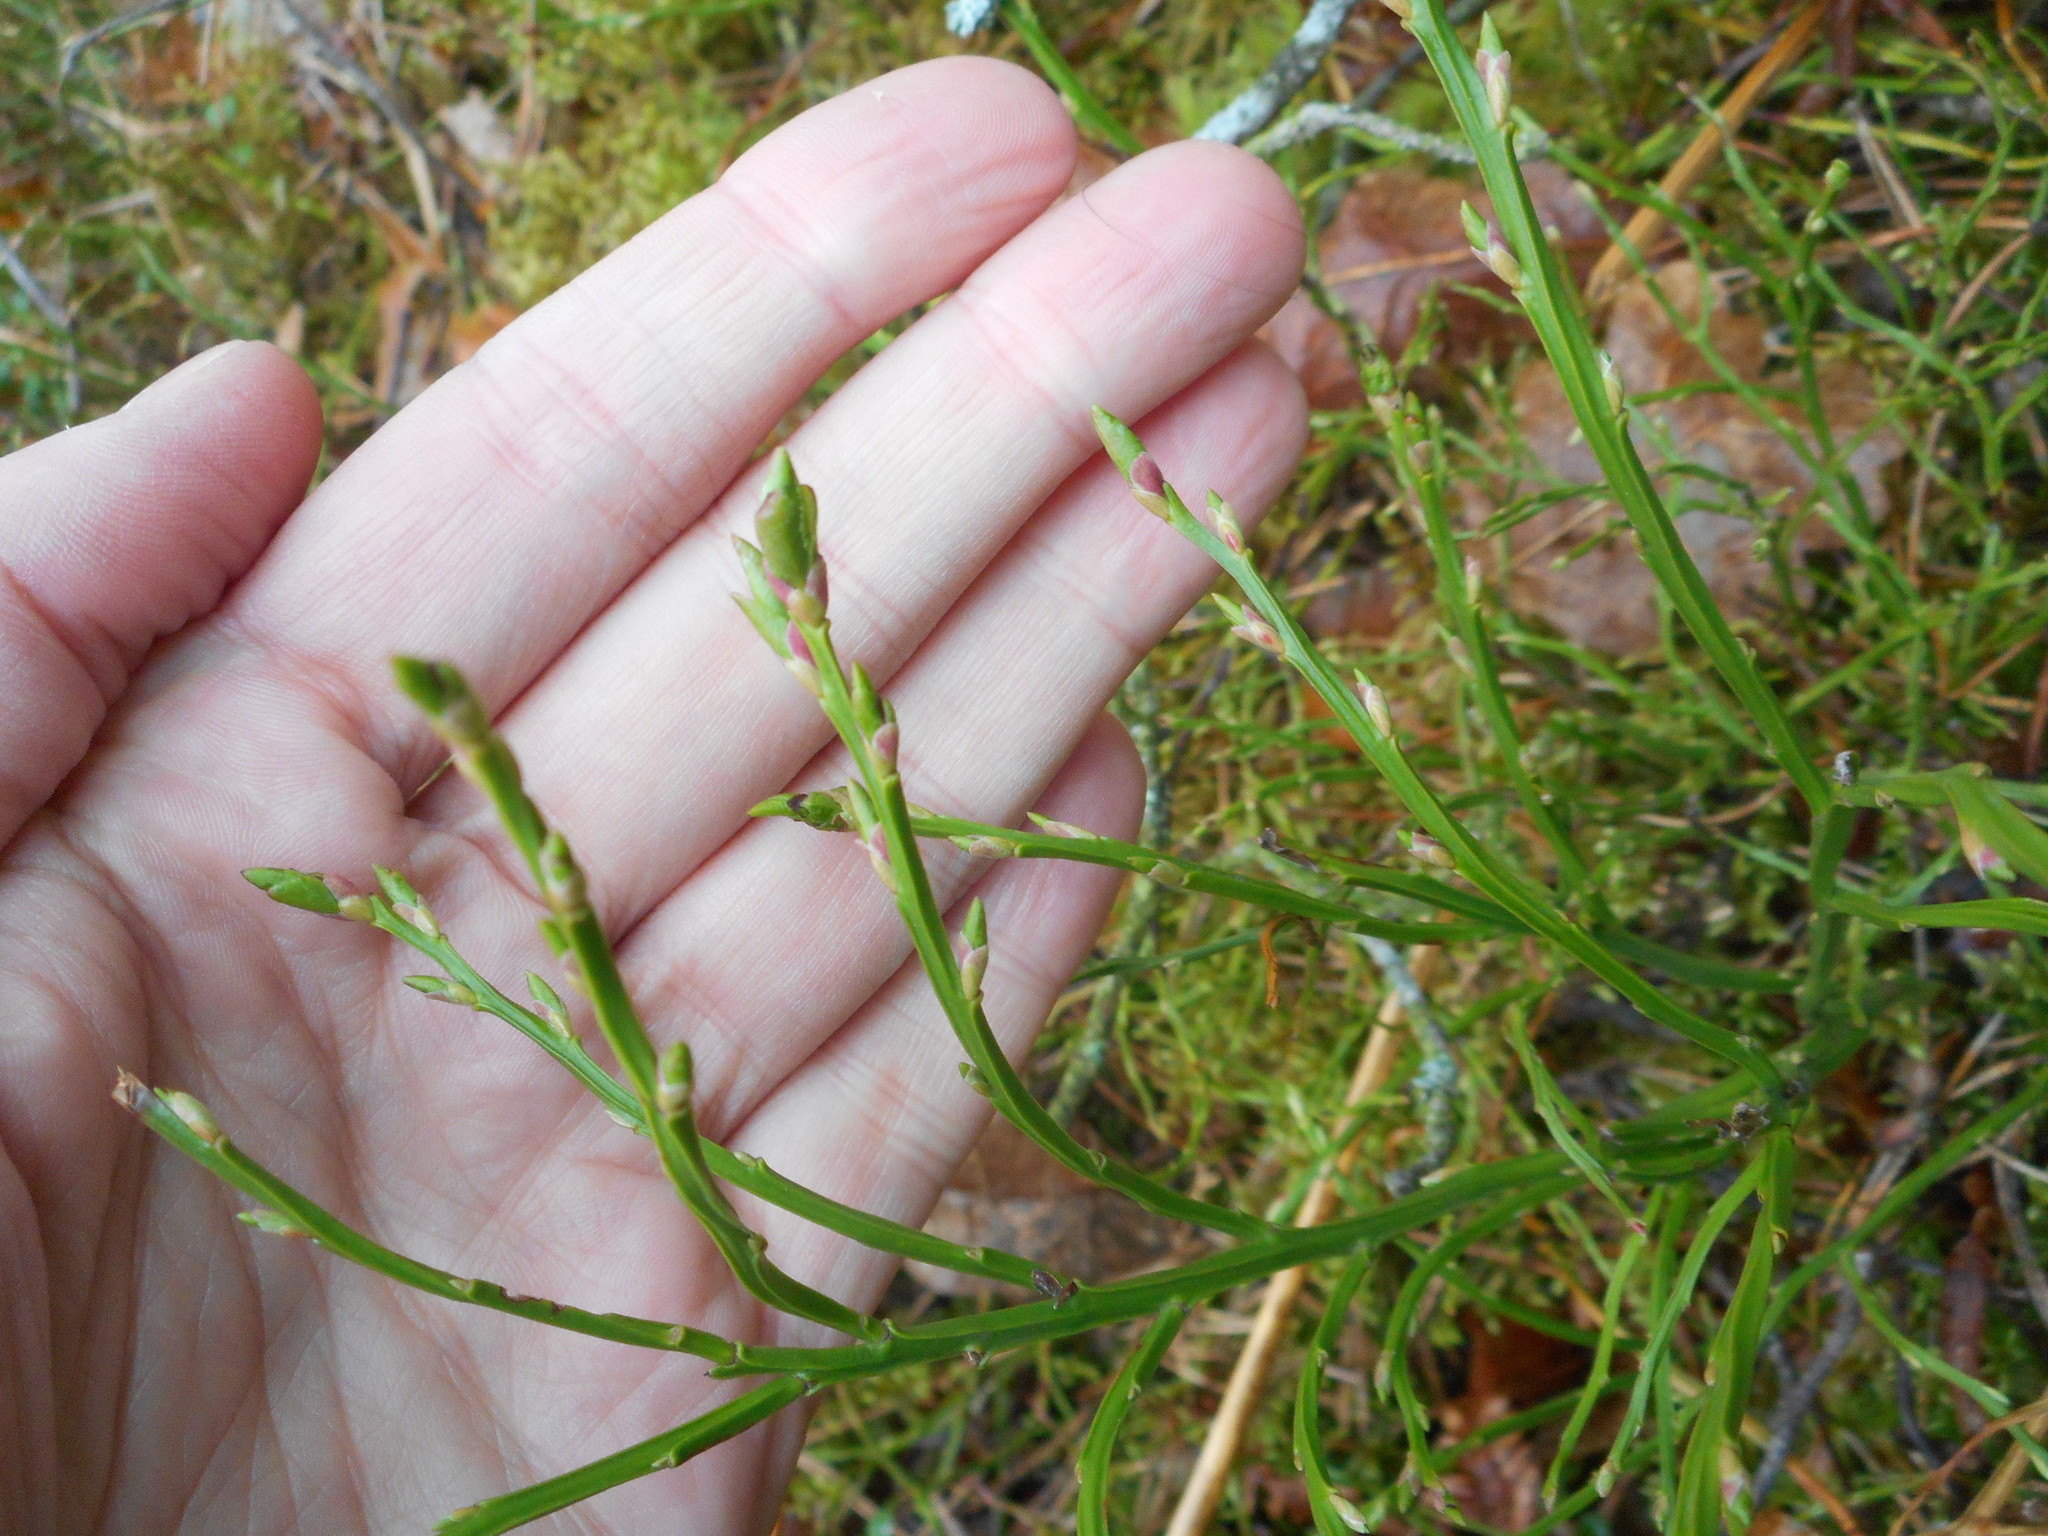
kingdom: Plantae
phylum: Tracheophyta
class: Magnoliopsida
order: Ericales
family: Ericaceae
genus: Vaccinium
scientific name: Vaccinium myrtillus
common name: Bilberry
